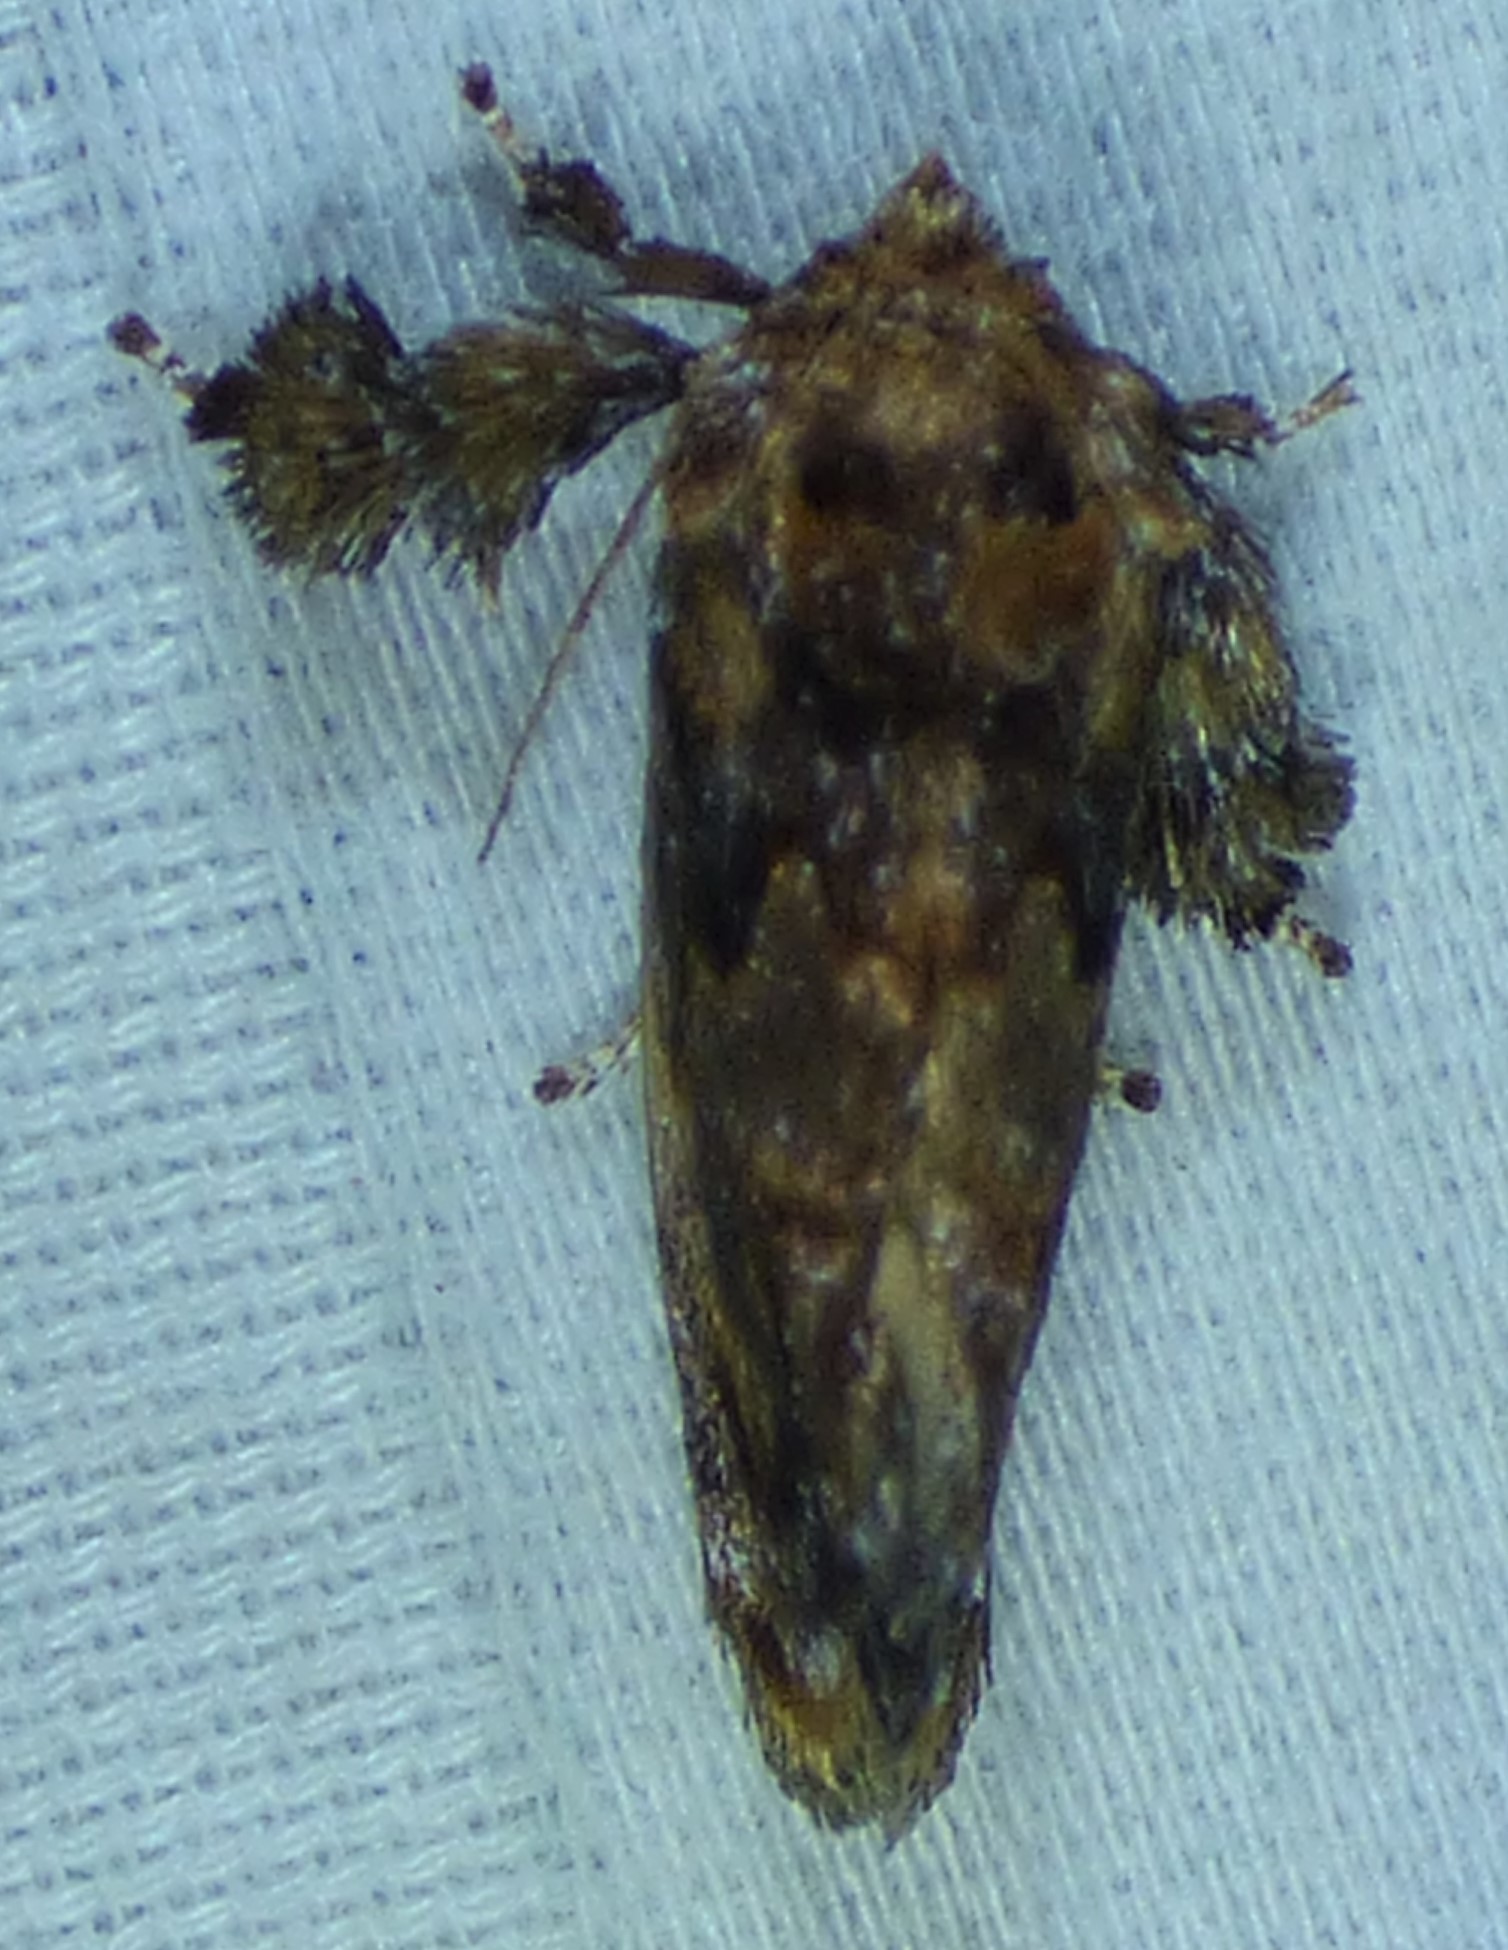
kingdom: Animalia
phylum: Arthropoda
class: Insecta
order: Lepidoptera
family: Limacodidae
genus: Isochaetes
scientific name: Isochaetes beutenmuelleri
